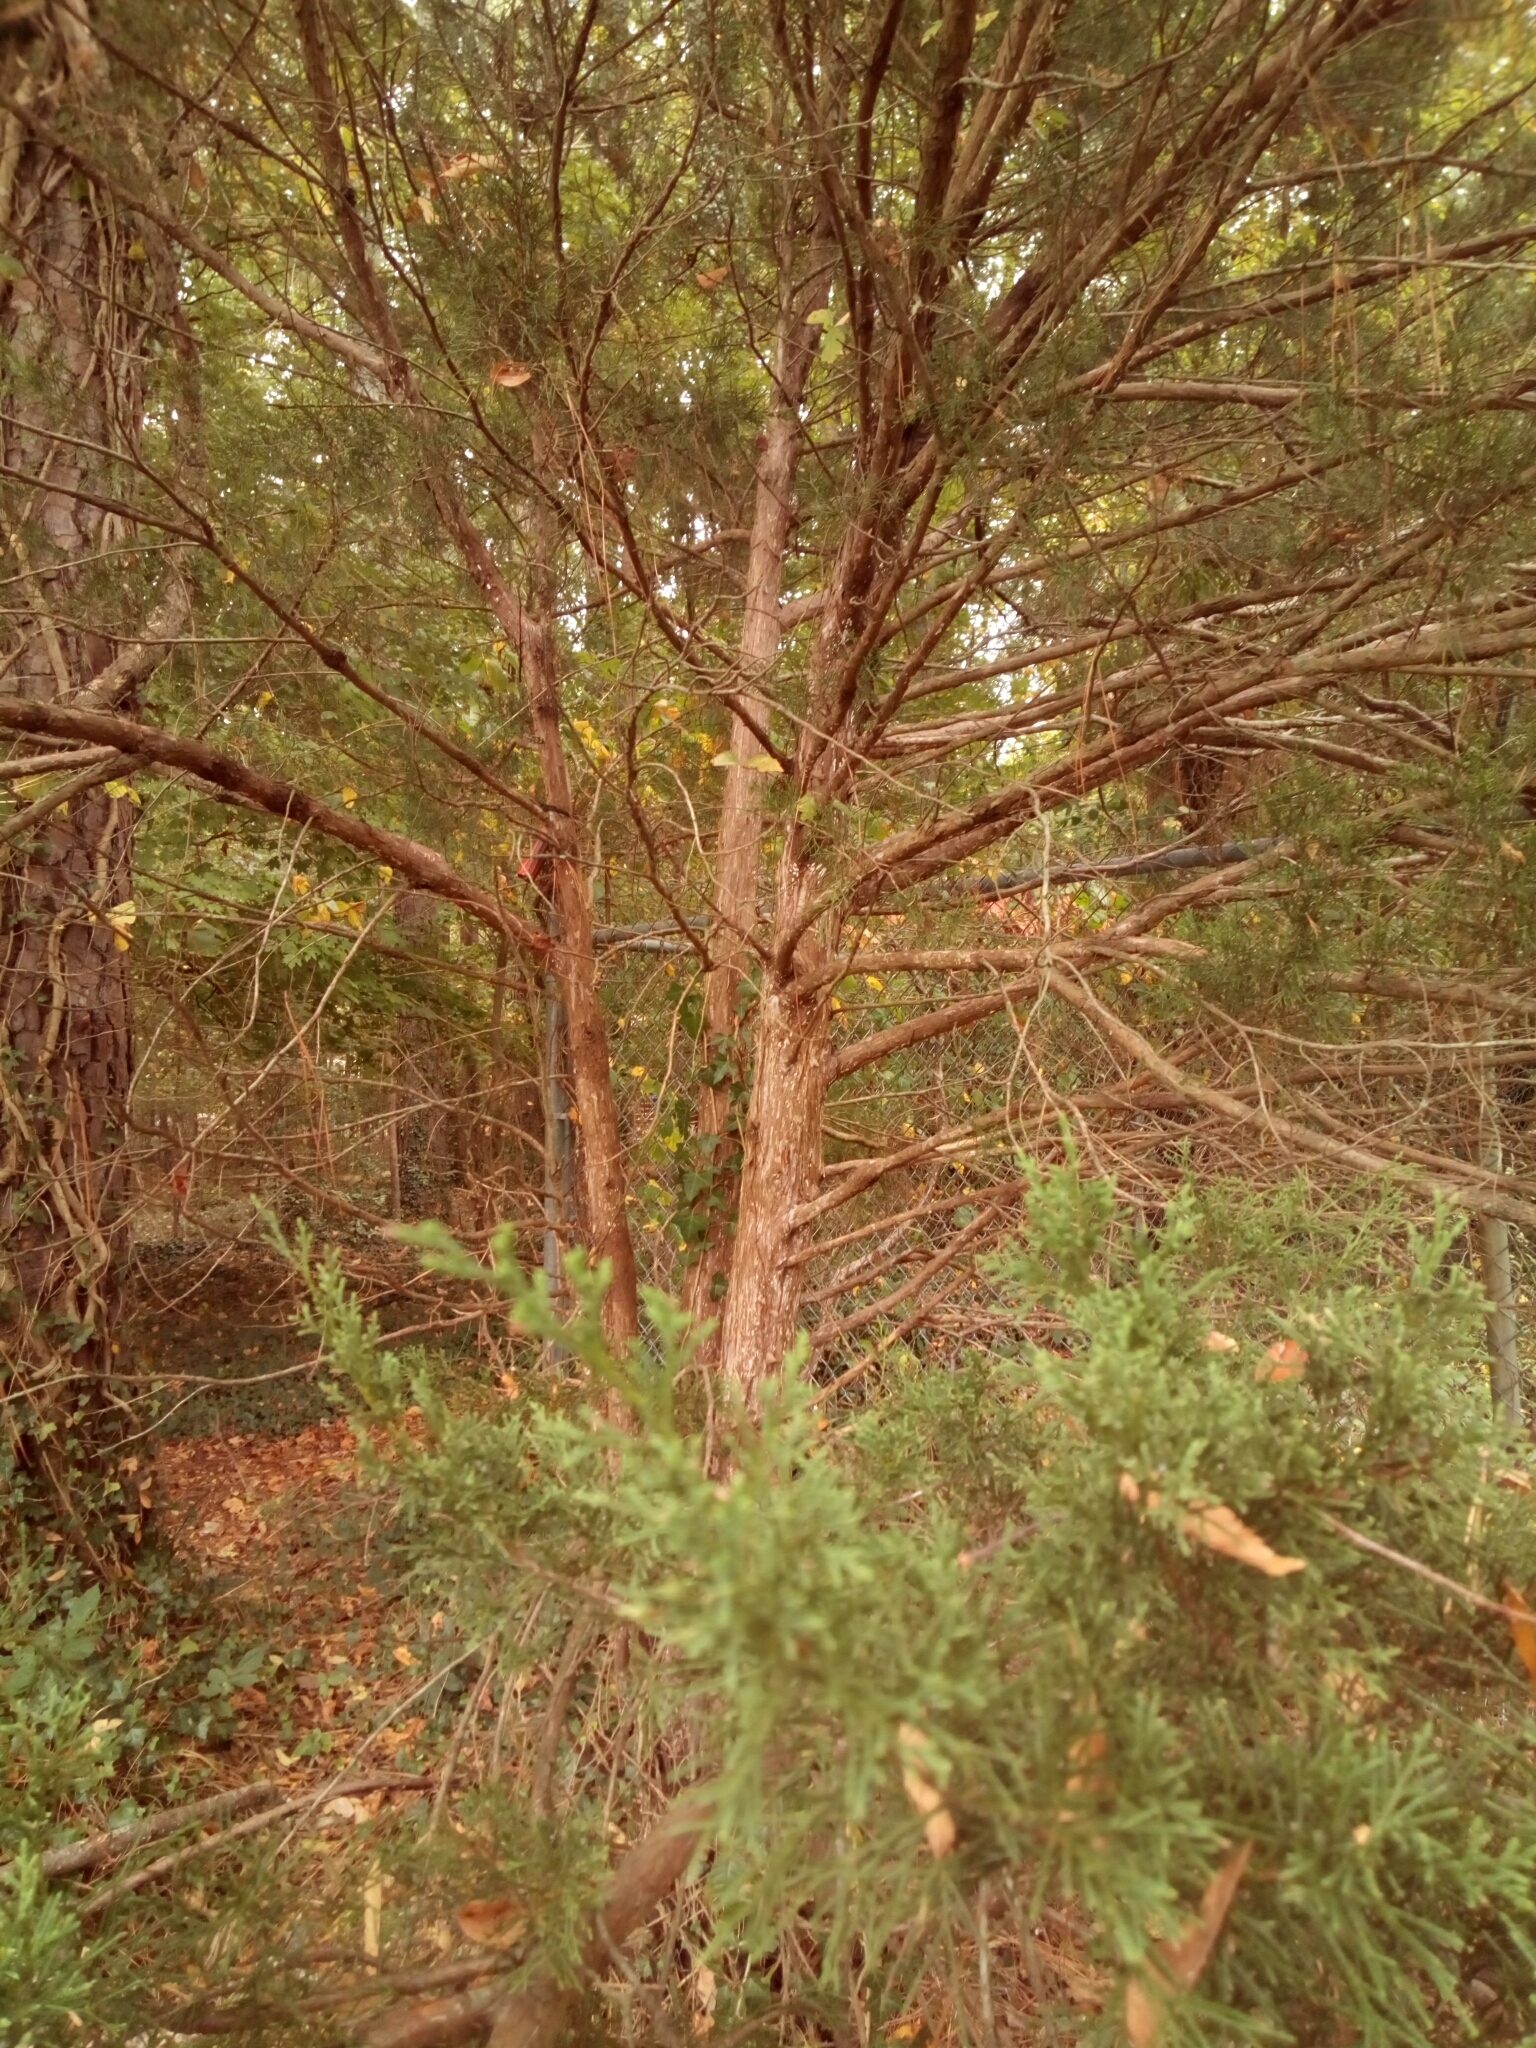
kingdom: Plantae
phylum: Tracheophyta
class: Pinopsida
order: Pinales
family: Cupressaceae
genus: Juniperus
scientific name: Juniperus virginiana
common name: Red juniper
